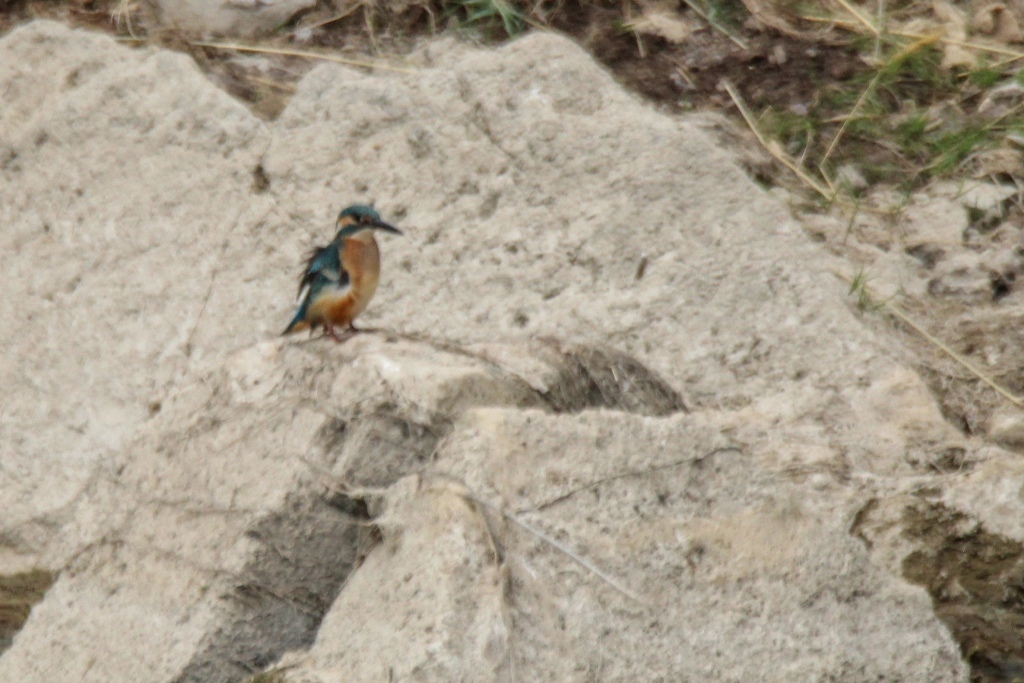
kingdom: Animalia
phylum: Chordata
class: Aves
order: Coraciiformes
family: Alcedinidae
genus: Alcedo
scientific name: Alcedo atthis
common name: Common kingfisher
